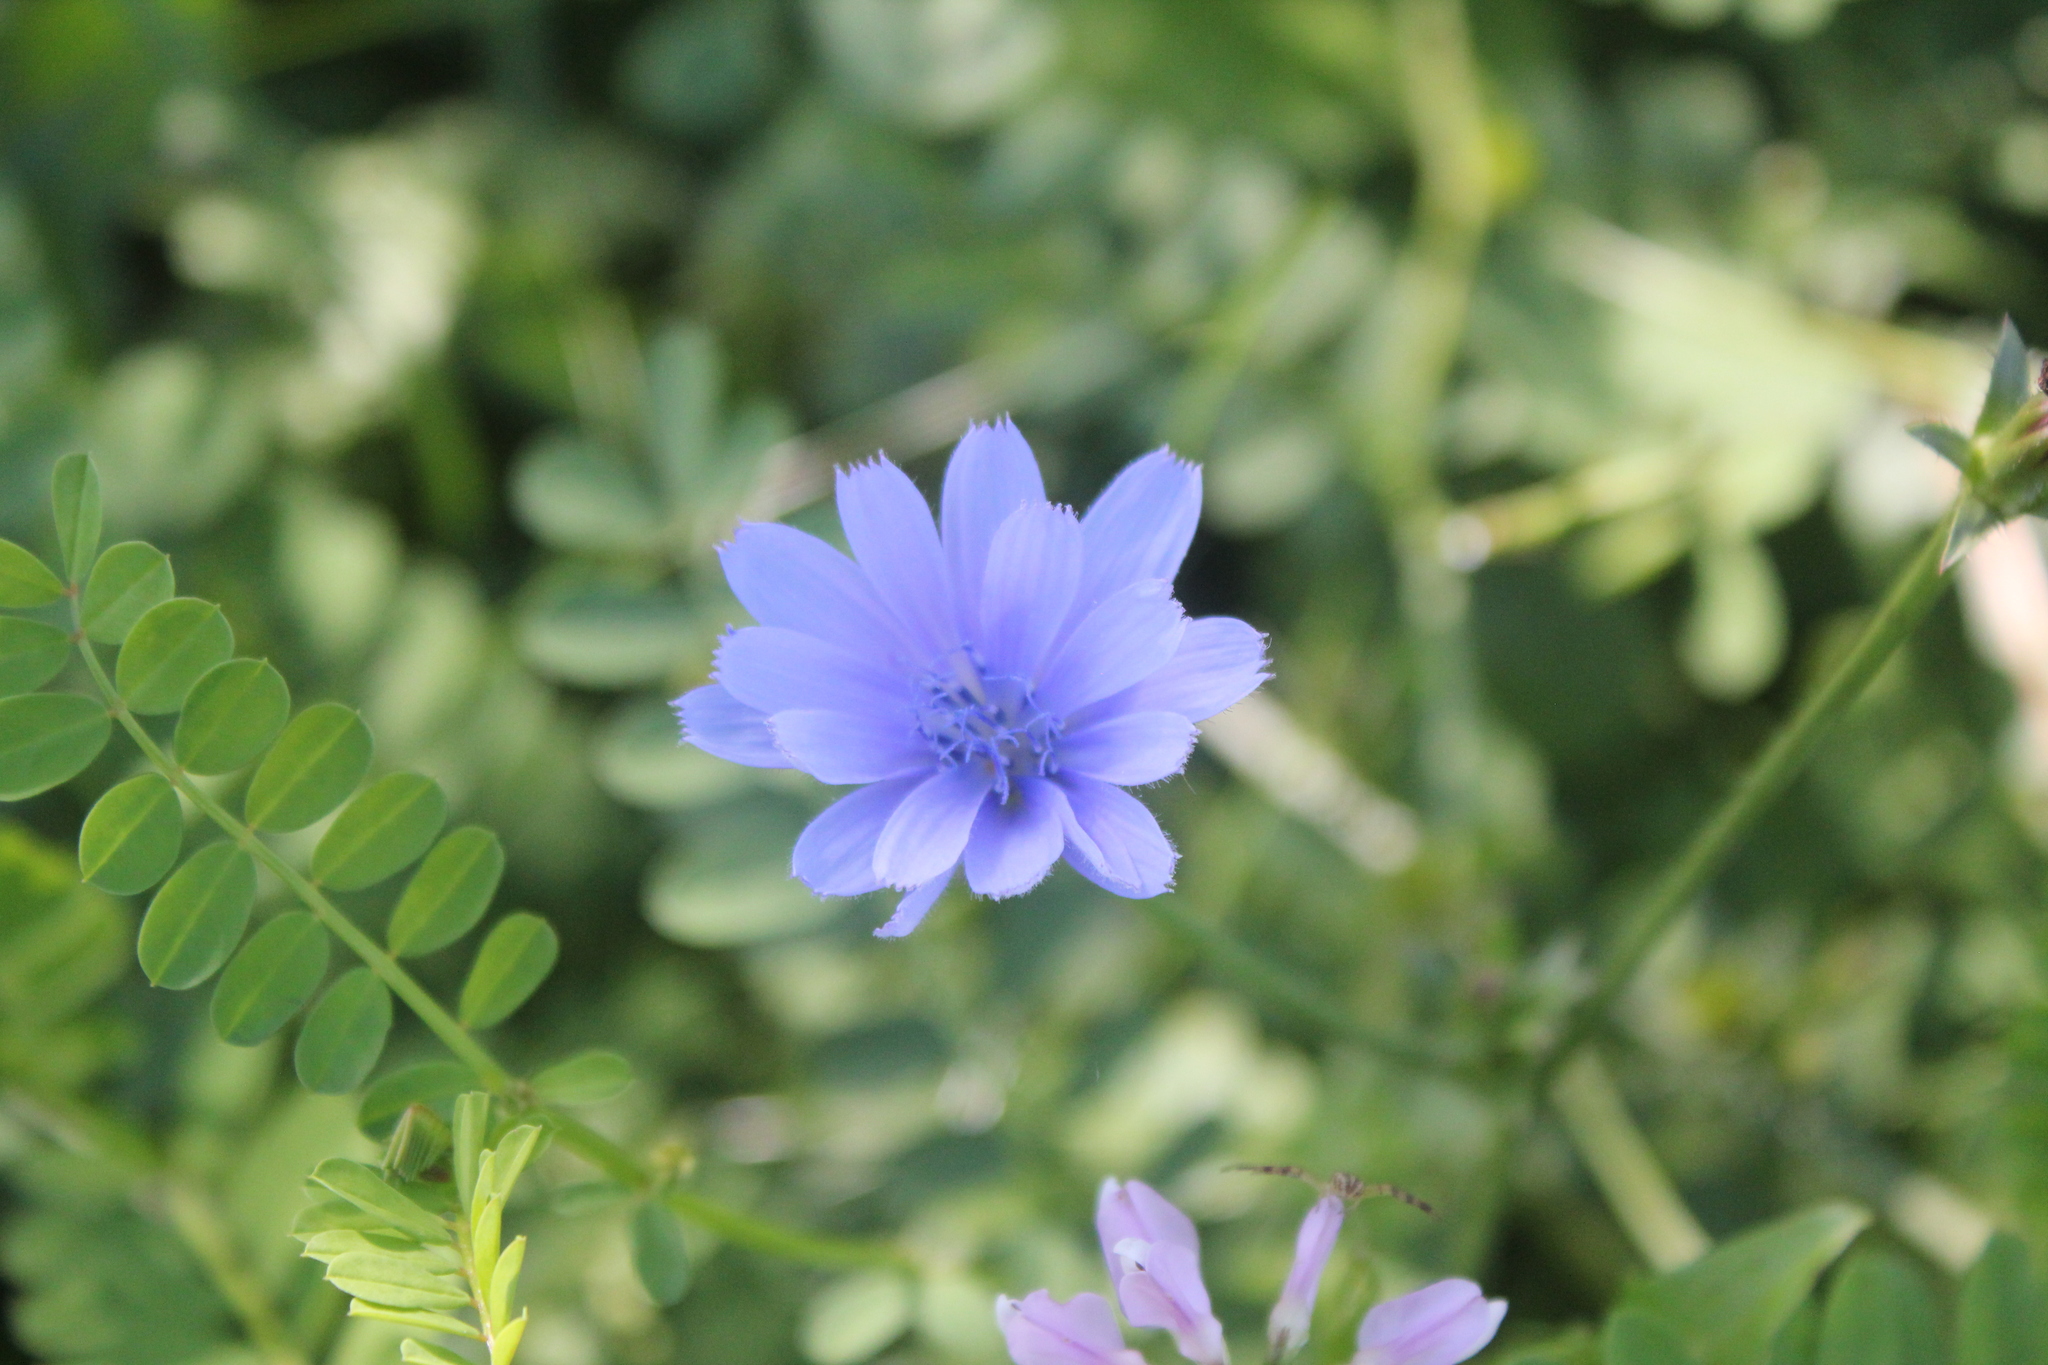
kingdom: Plantae
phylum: Tracheophyta
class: Magnoliopsida
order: Asterales
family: Asteraceae
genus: Cichorium
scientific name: Cichorium intybus
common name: Chicory
